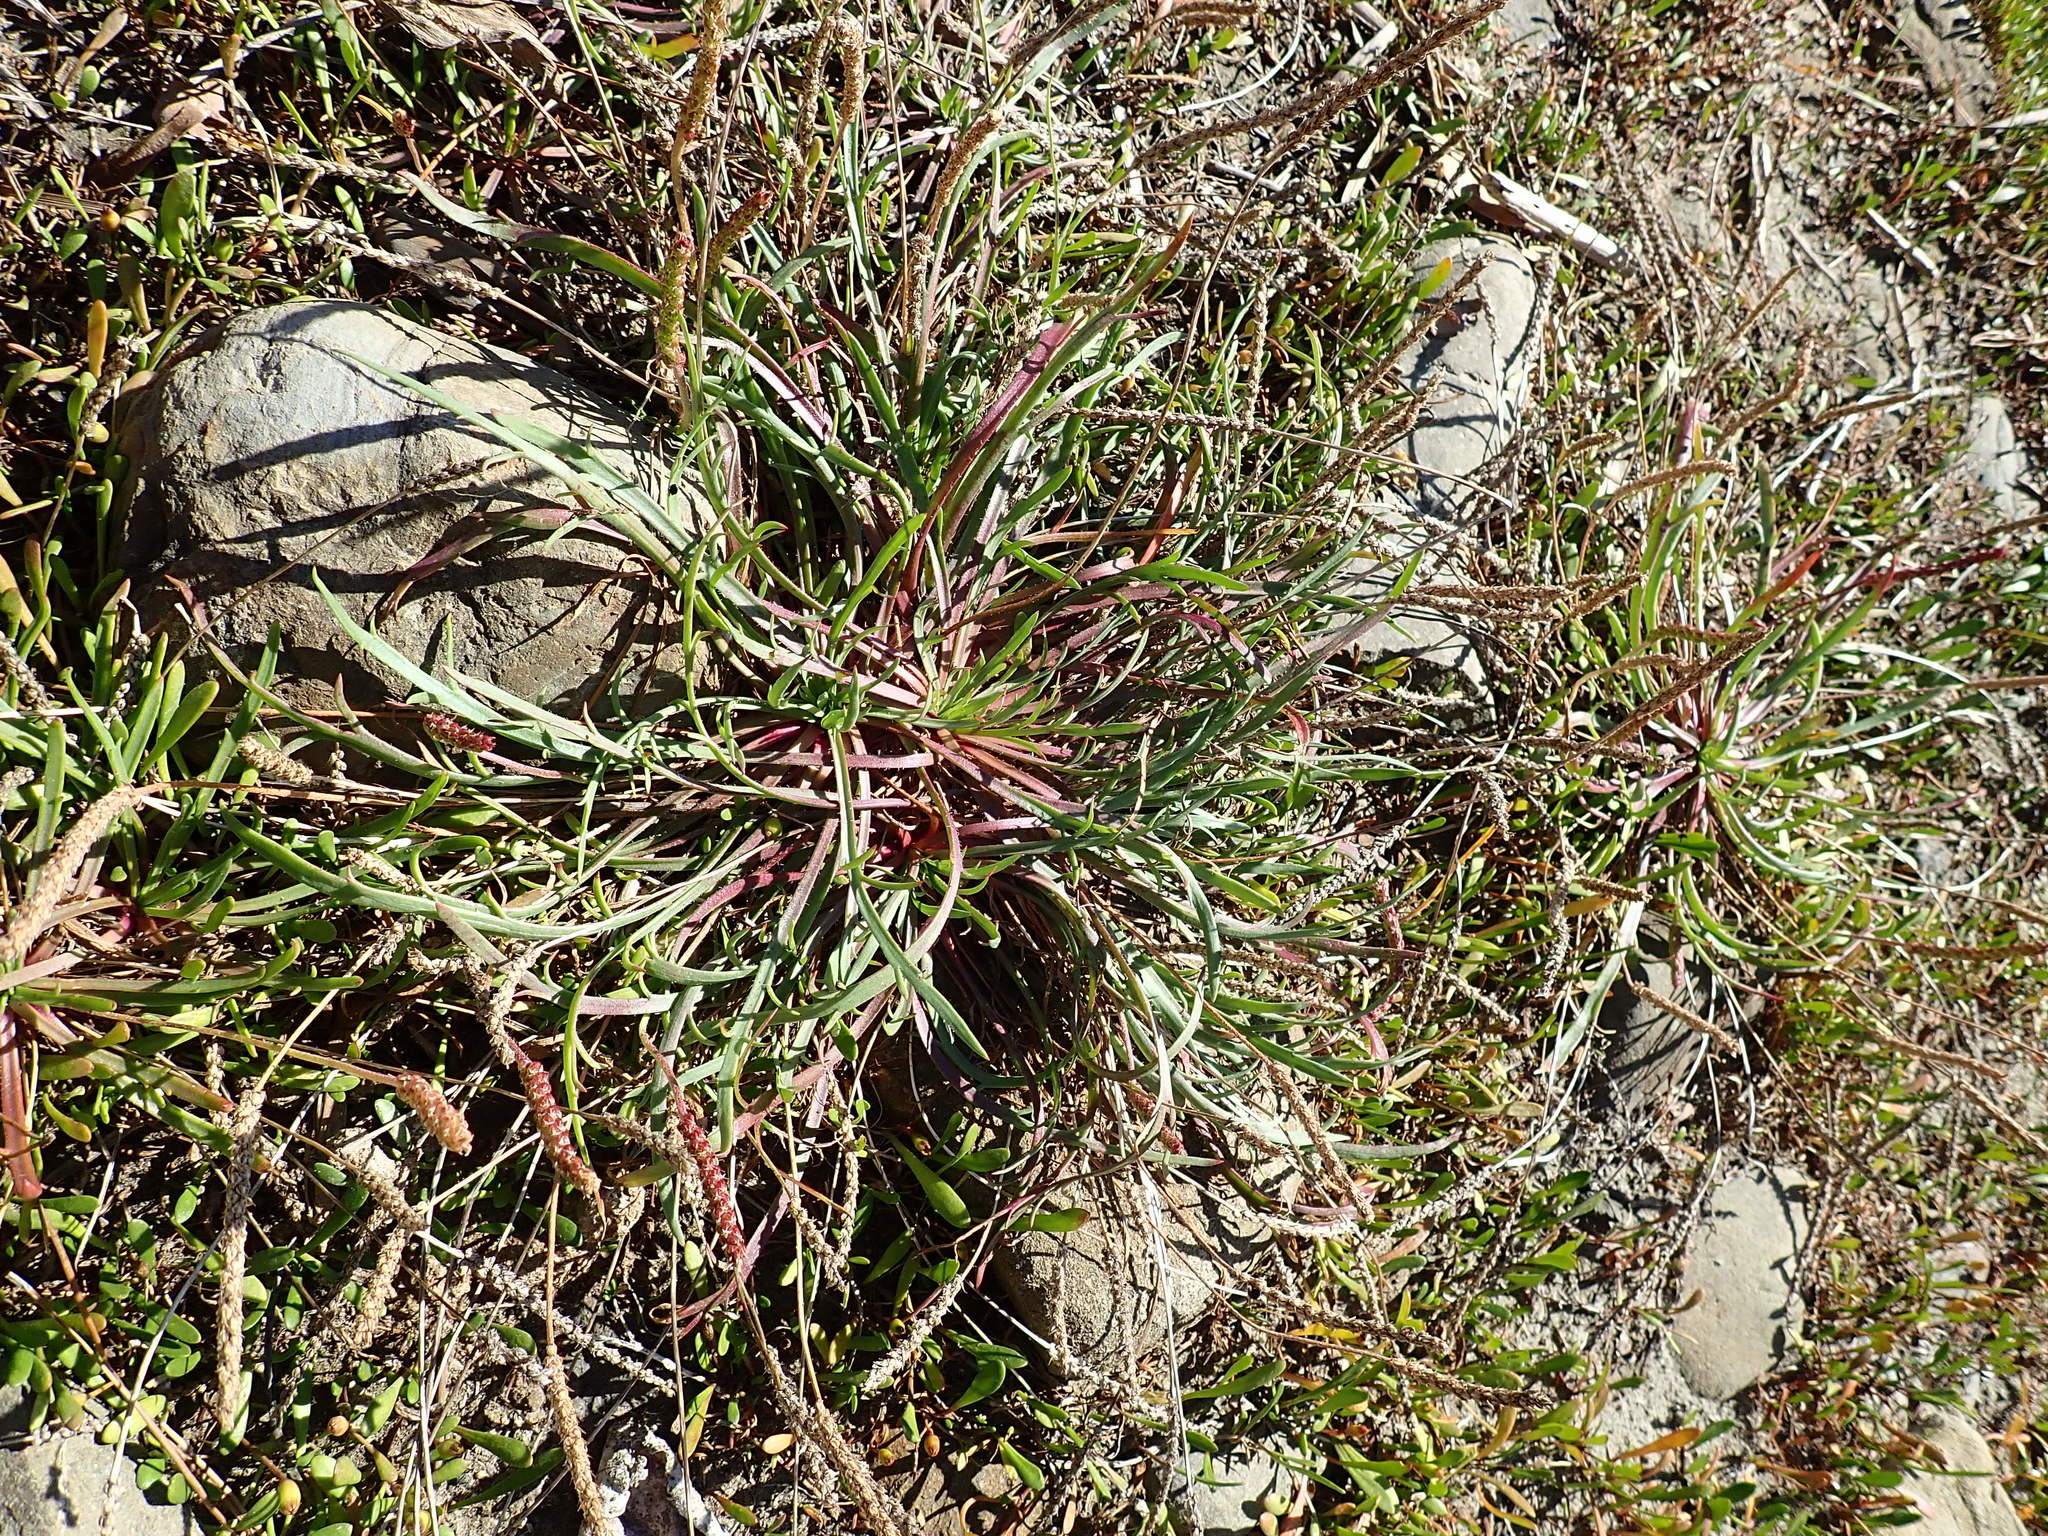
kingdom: Plantae
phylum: Tracheophyta
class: Magnoliopsida
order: Lamiales
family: Plantaginaceae
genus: Plantago
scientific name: Plantago coronopus
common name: Buck's-horn plantain
